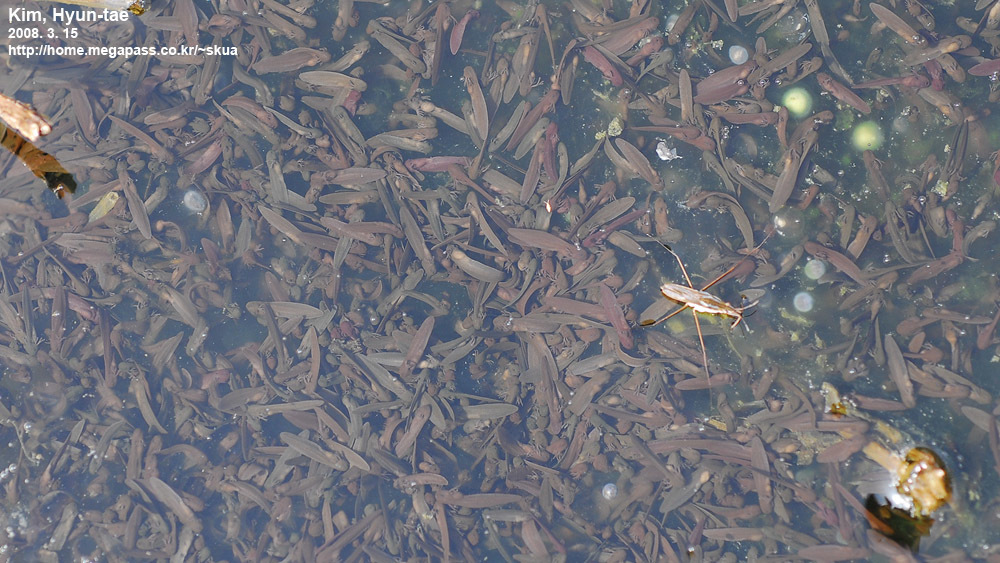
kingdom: Animalia
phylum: Chordata
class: Amphibia
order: Anura
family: Ranidae
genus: Rana
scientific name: Rana uenoi
